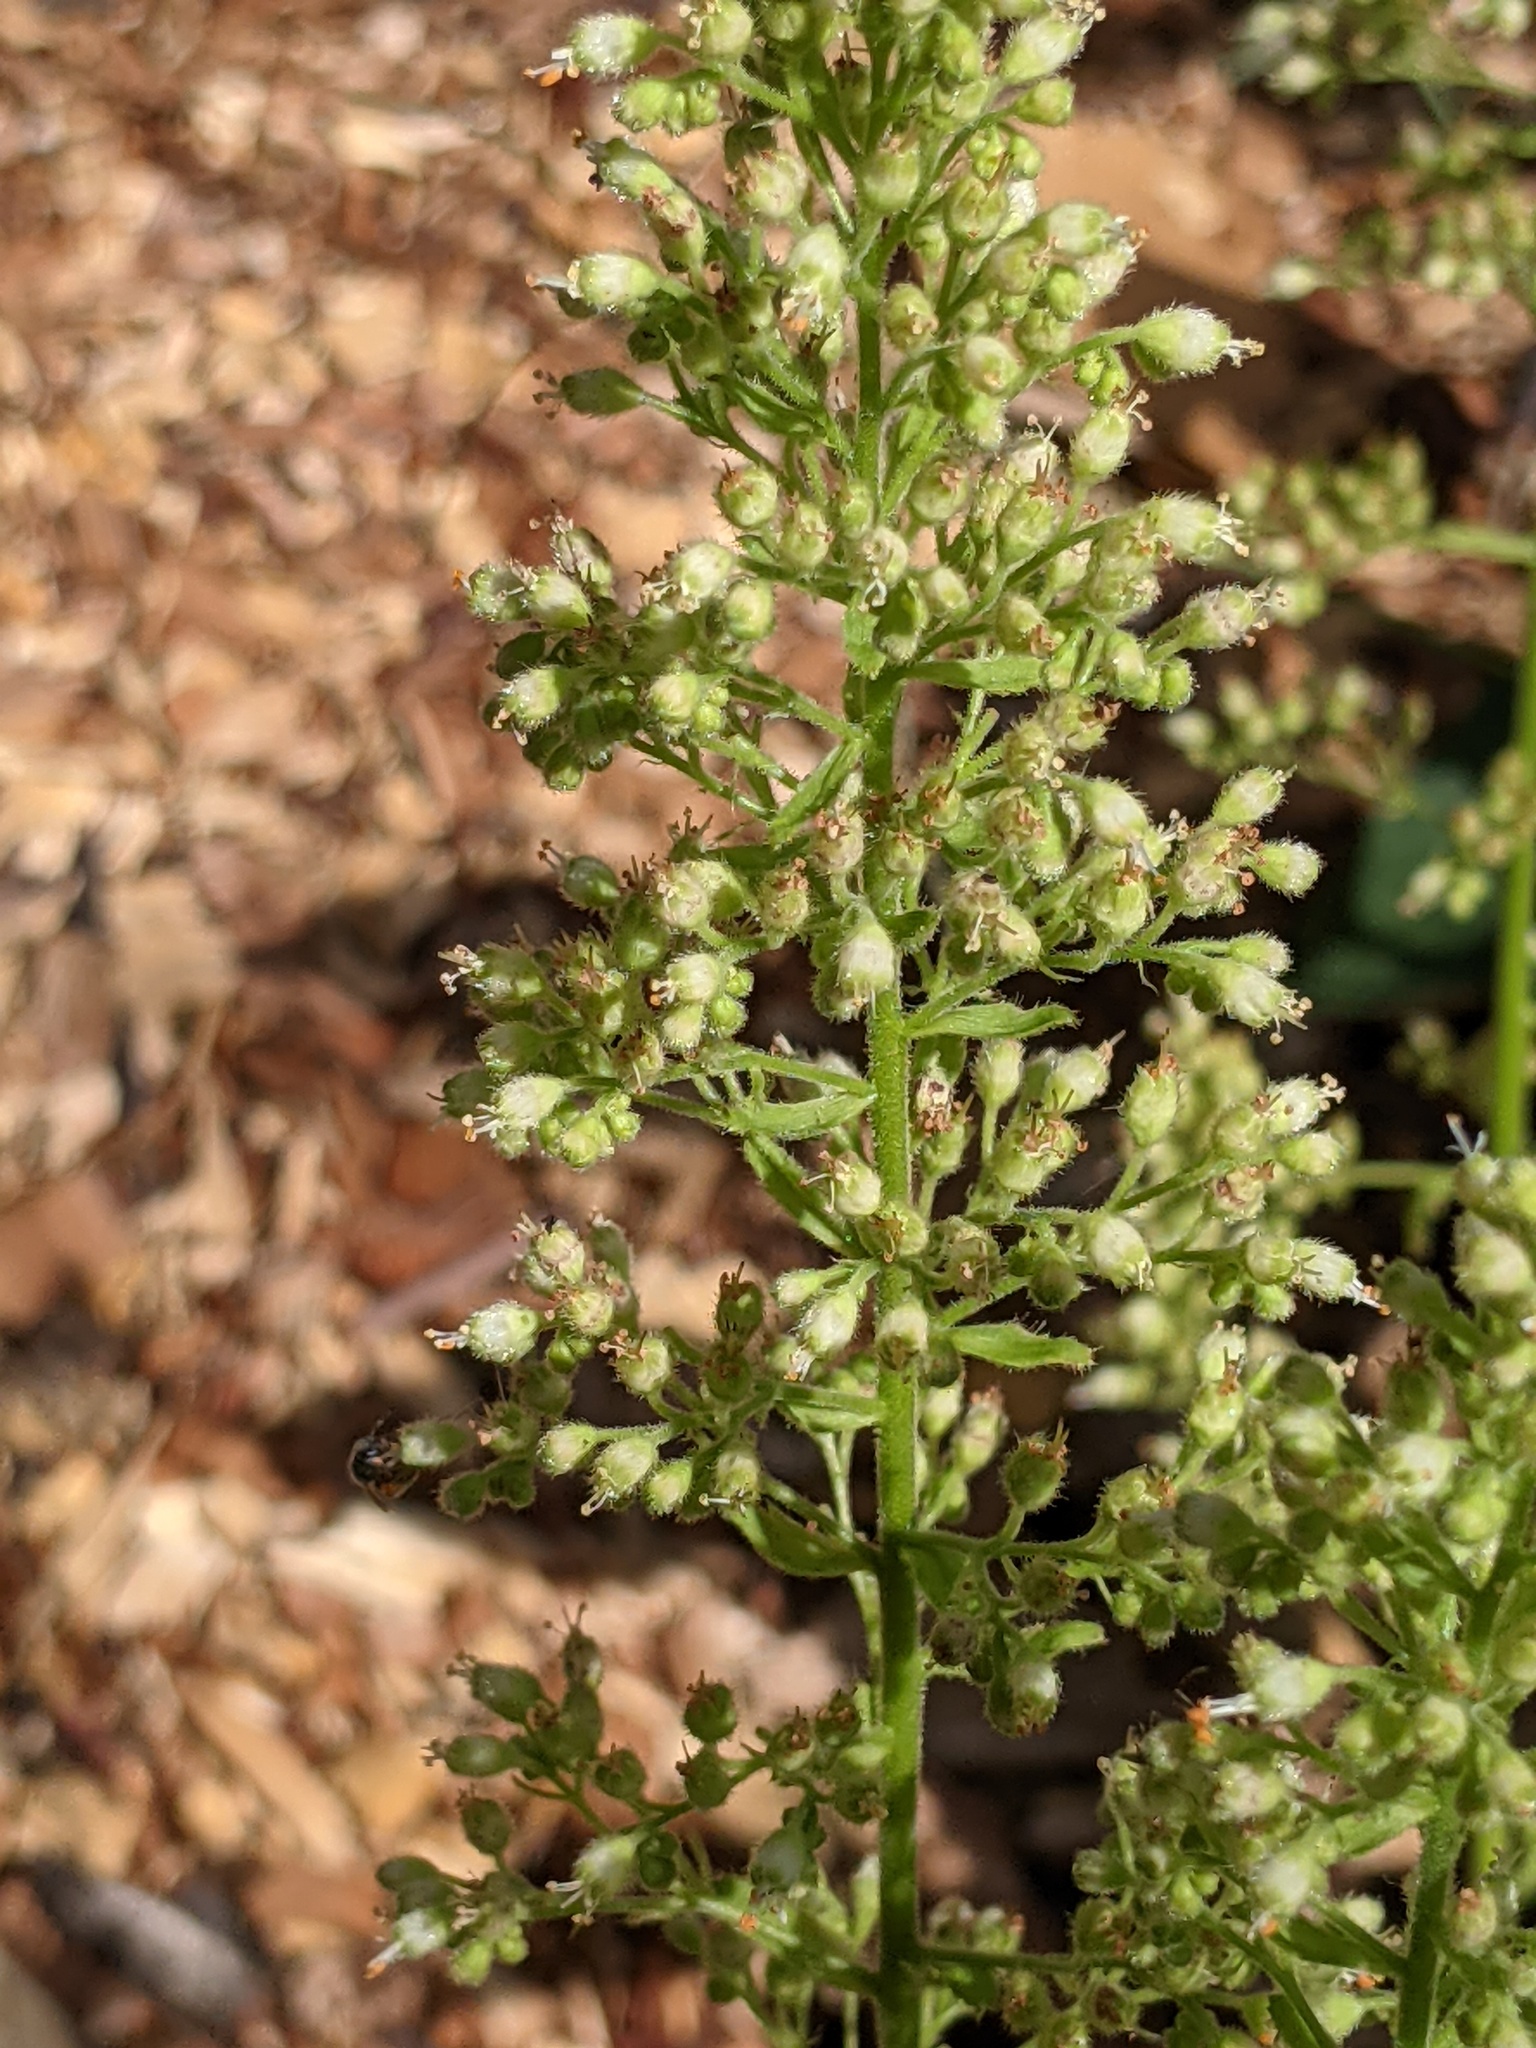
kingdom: Animalia
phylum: Arthropoda
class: Insecta
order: Hymenoptera
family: Halictidae
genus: Dialictus
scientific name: Dialictus
